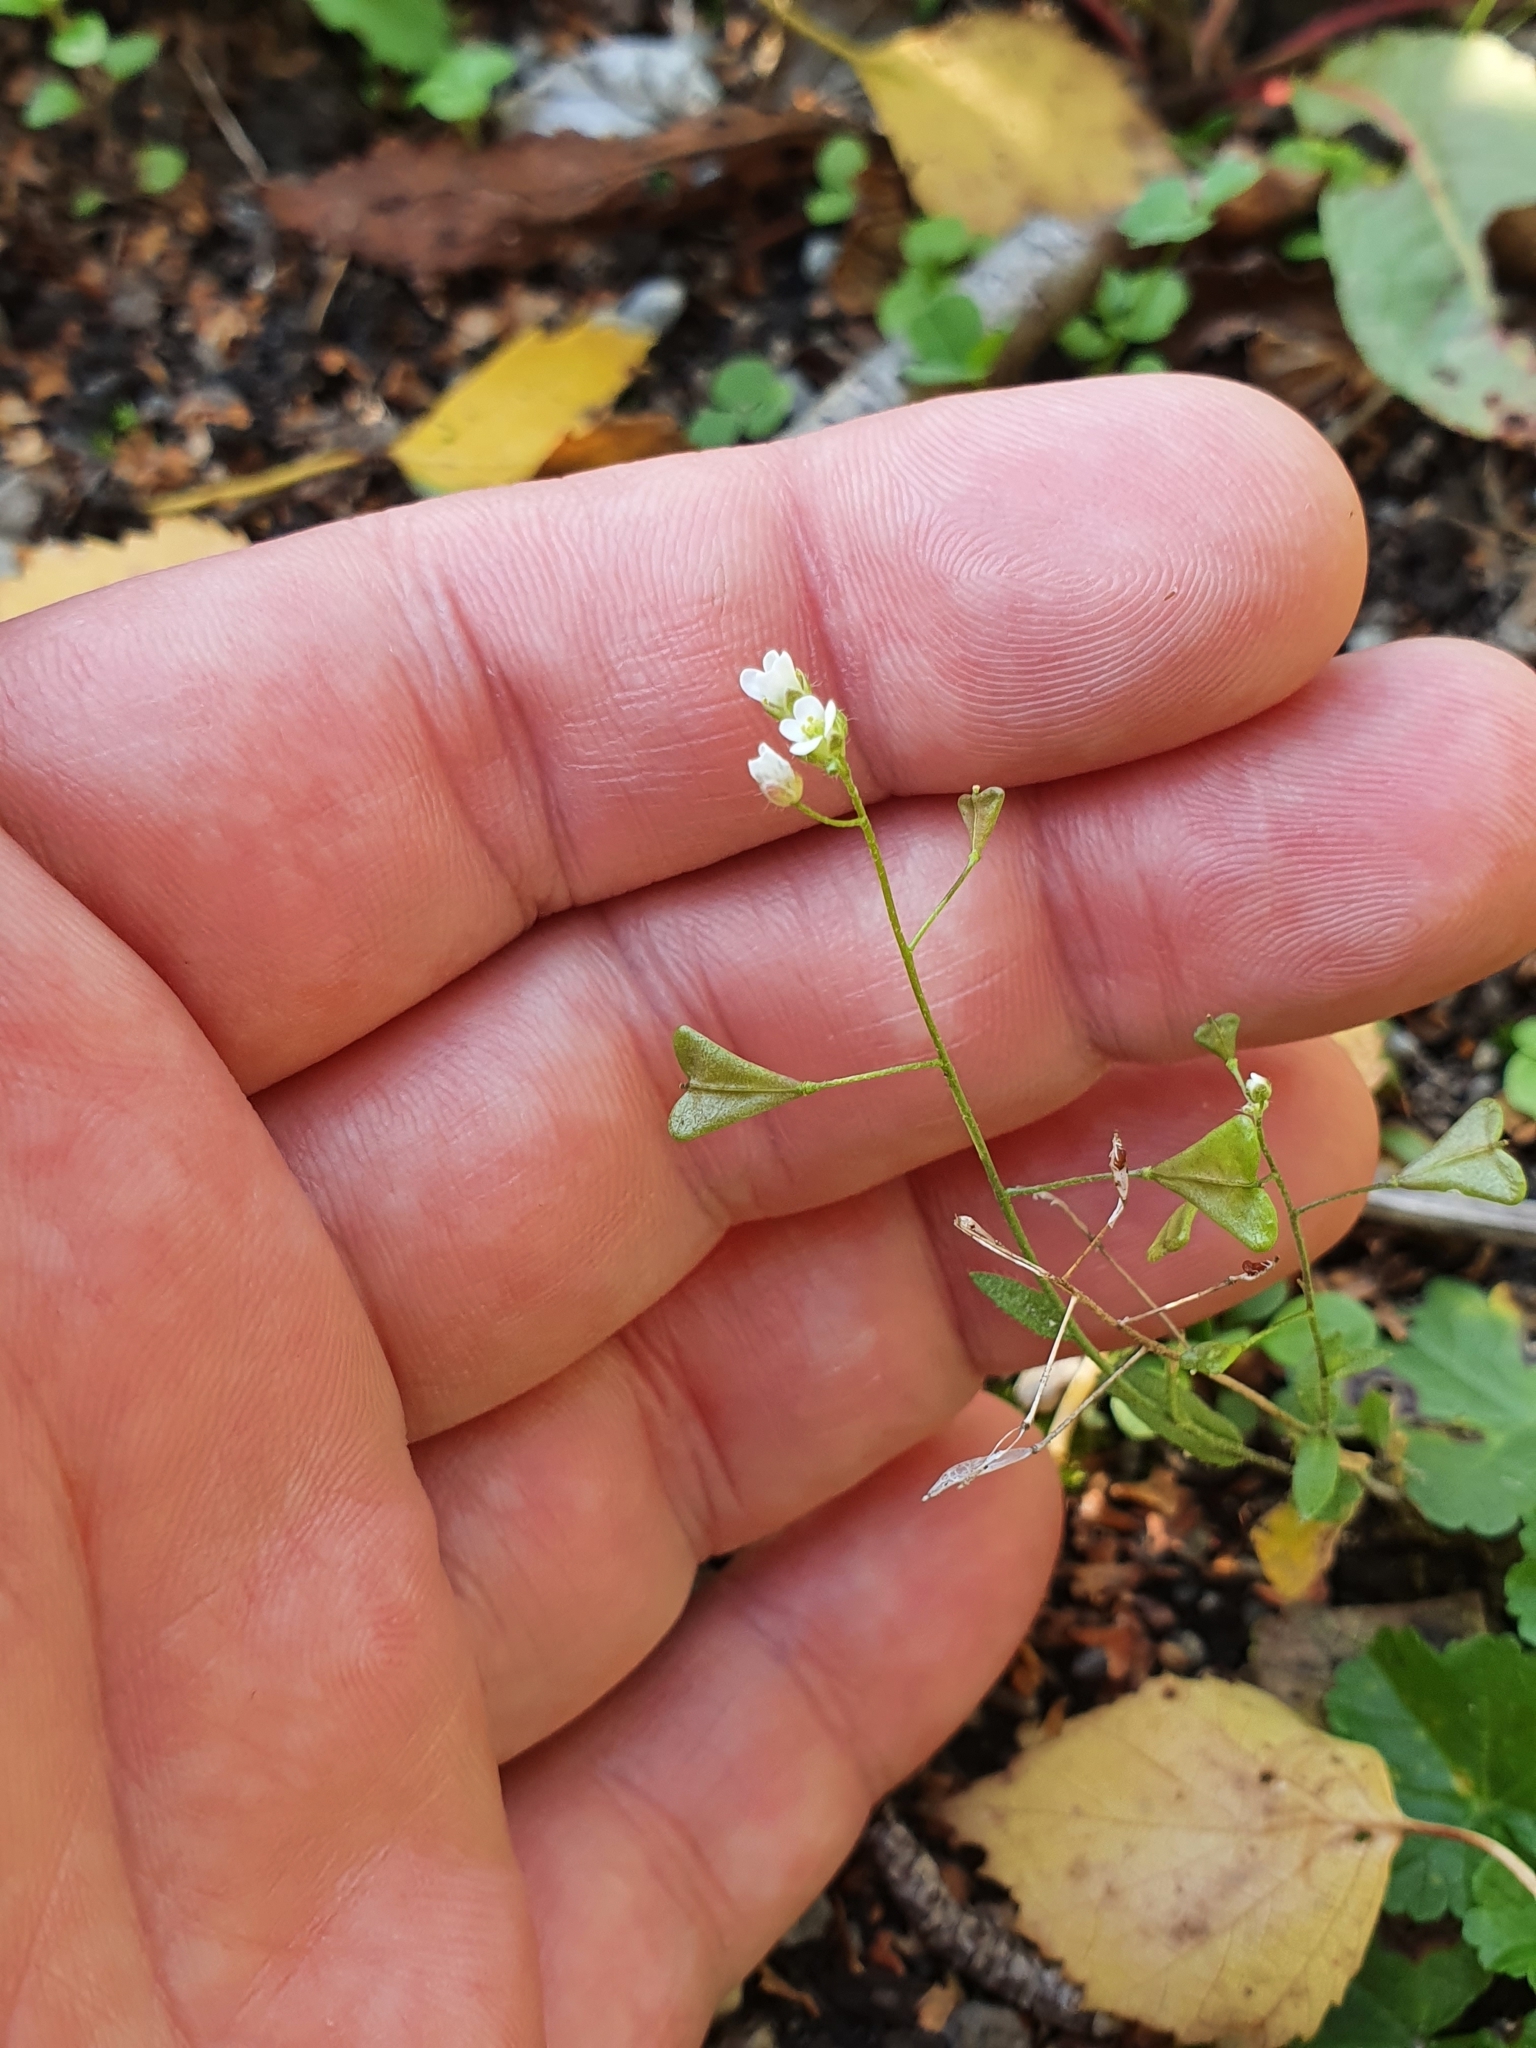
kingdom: Plantae
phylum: Tracheophyta
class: Magnoliopsida
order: Brassicales
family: Brassicaceae
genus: Capsella
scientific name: Capsella bursa-pastoris
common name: Shepherd's purse
